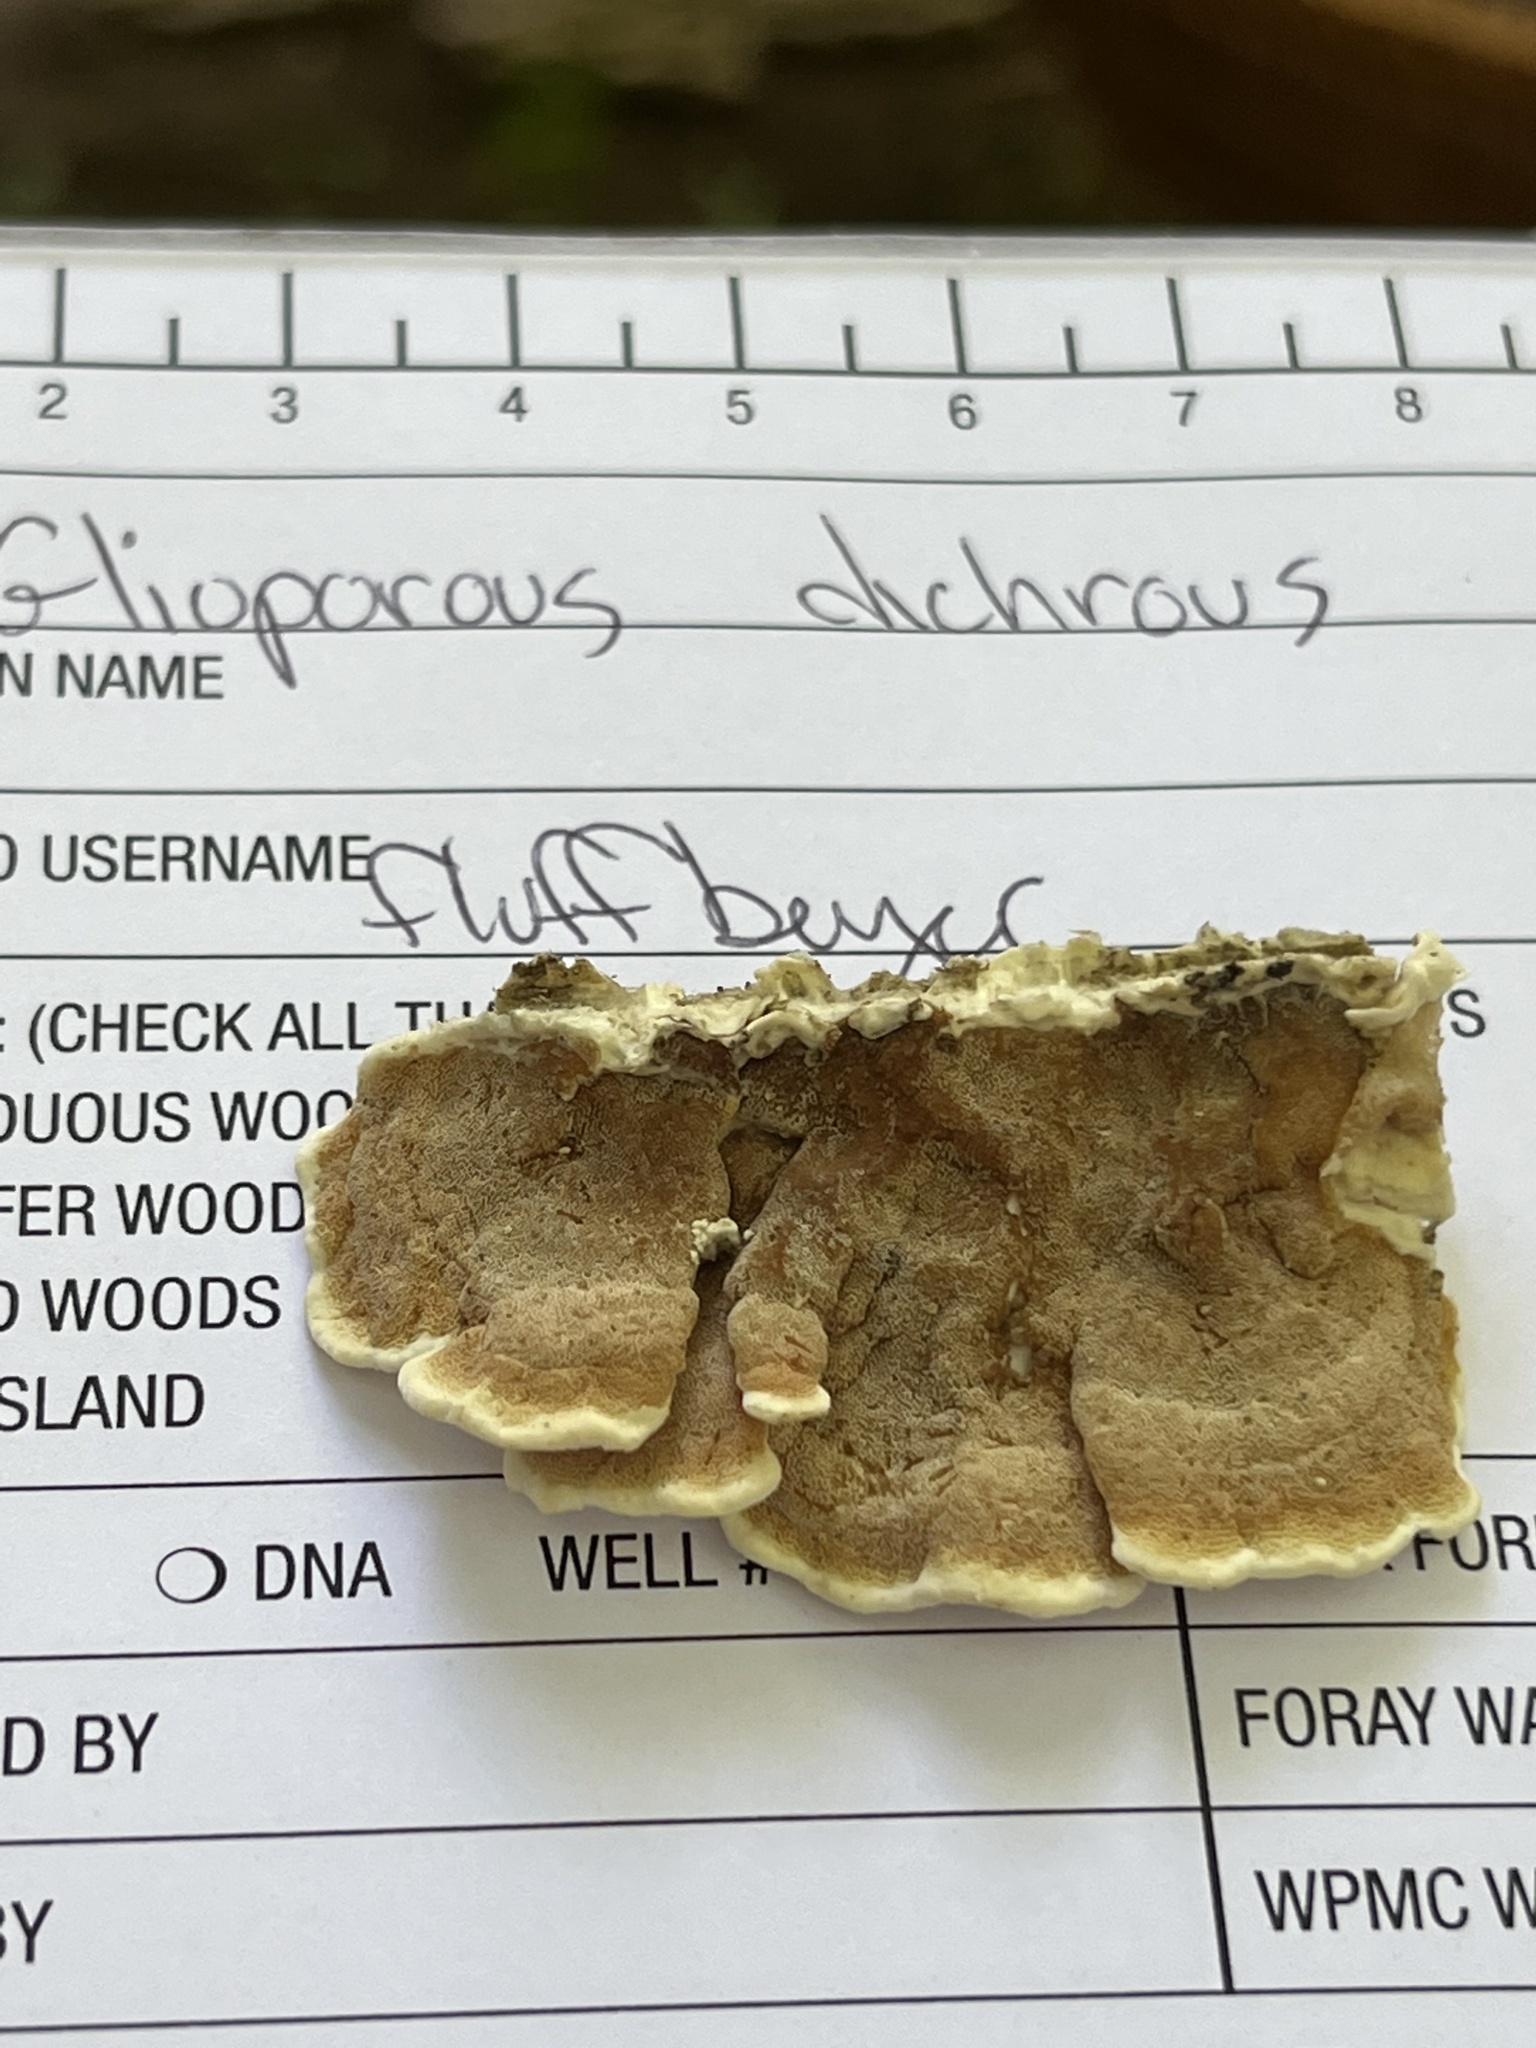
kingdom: Fungi
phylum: Basidiomycota
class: Agaricomycetes
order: Polyporales
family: Irpicaceae
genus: Vitreoporus
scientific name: Vitreoporus dichrous
